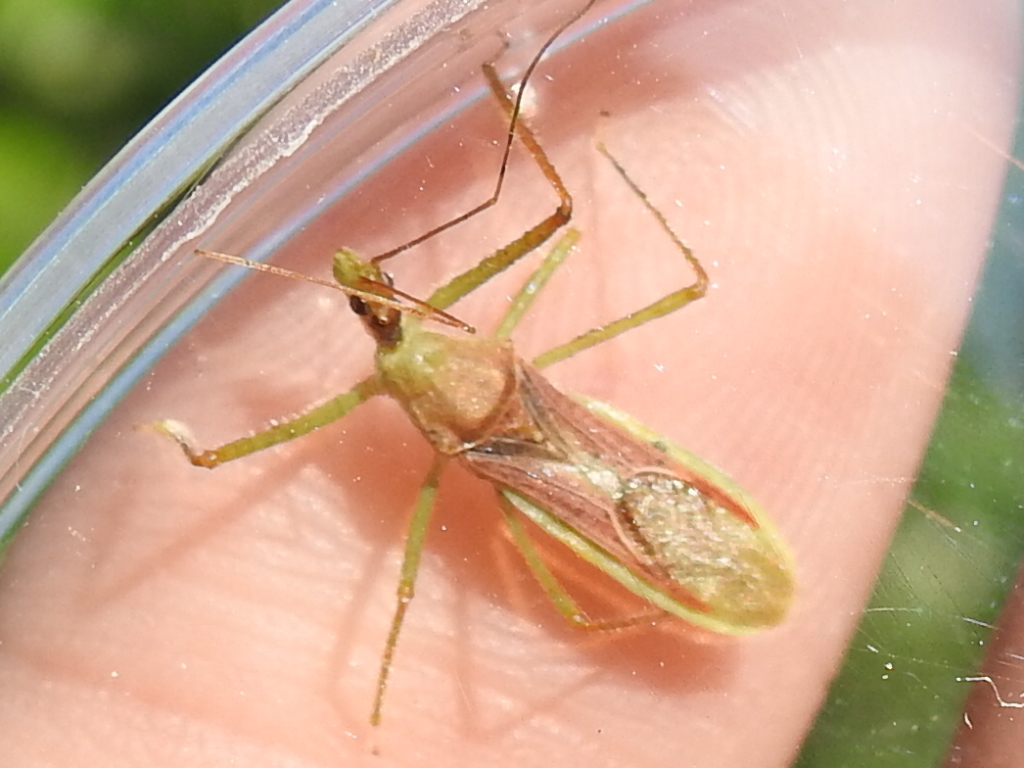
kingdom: Animalia
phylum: Arthropoda
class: Insecta
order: Hemiptera
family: Reduviidae
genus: Zelus
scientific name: Zelus renardii
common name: Assassin bug
